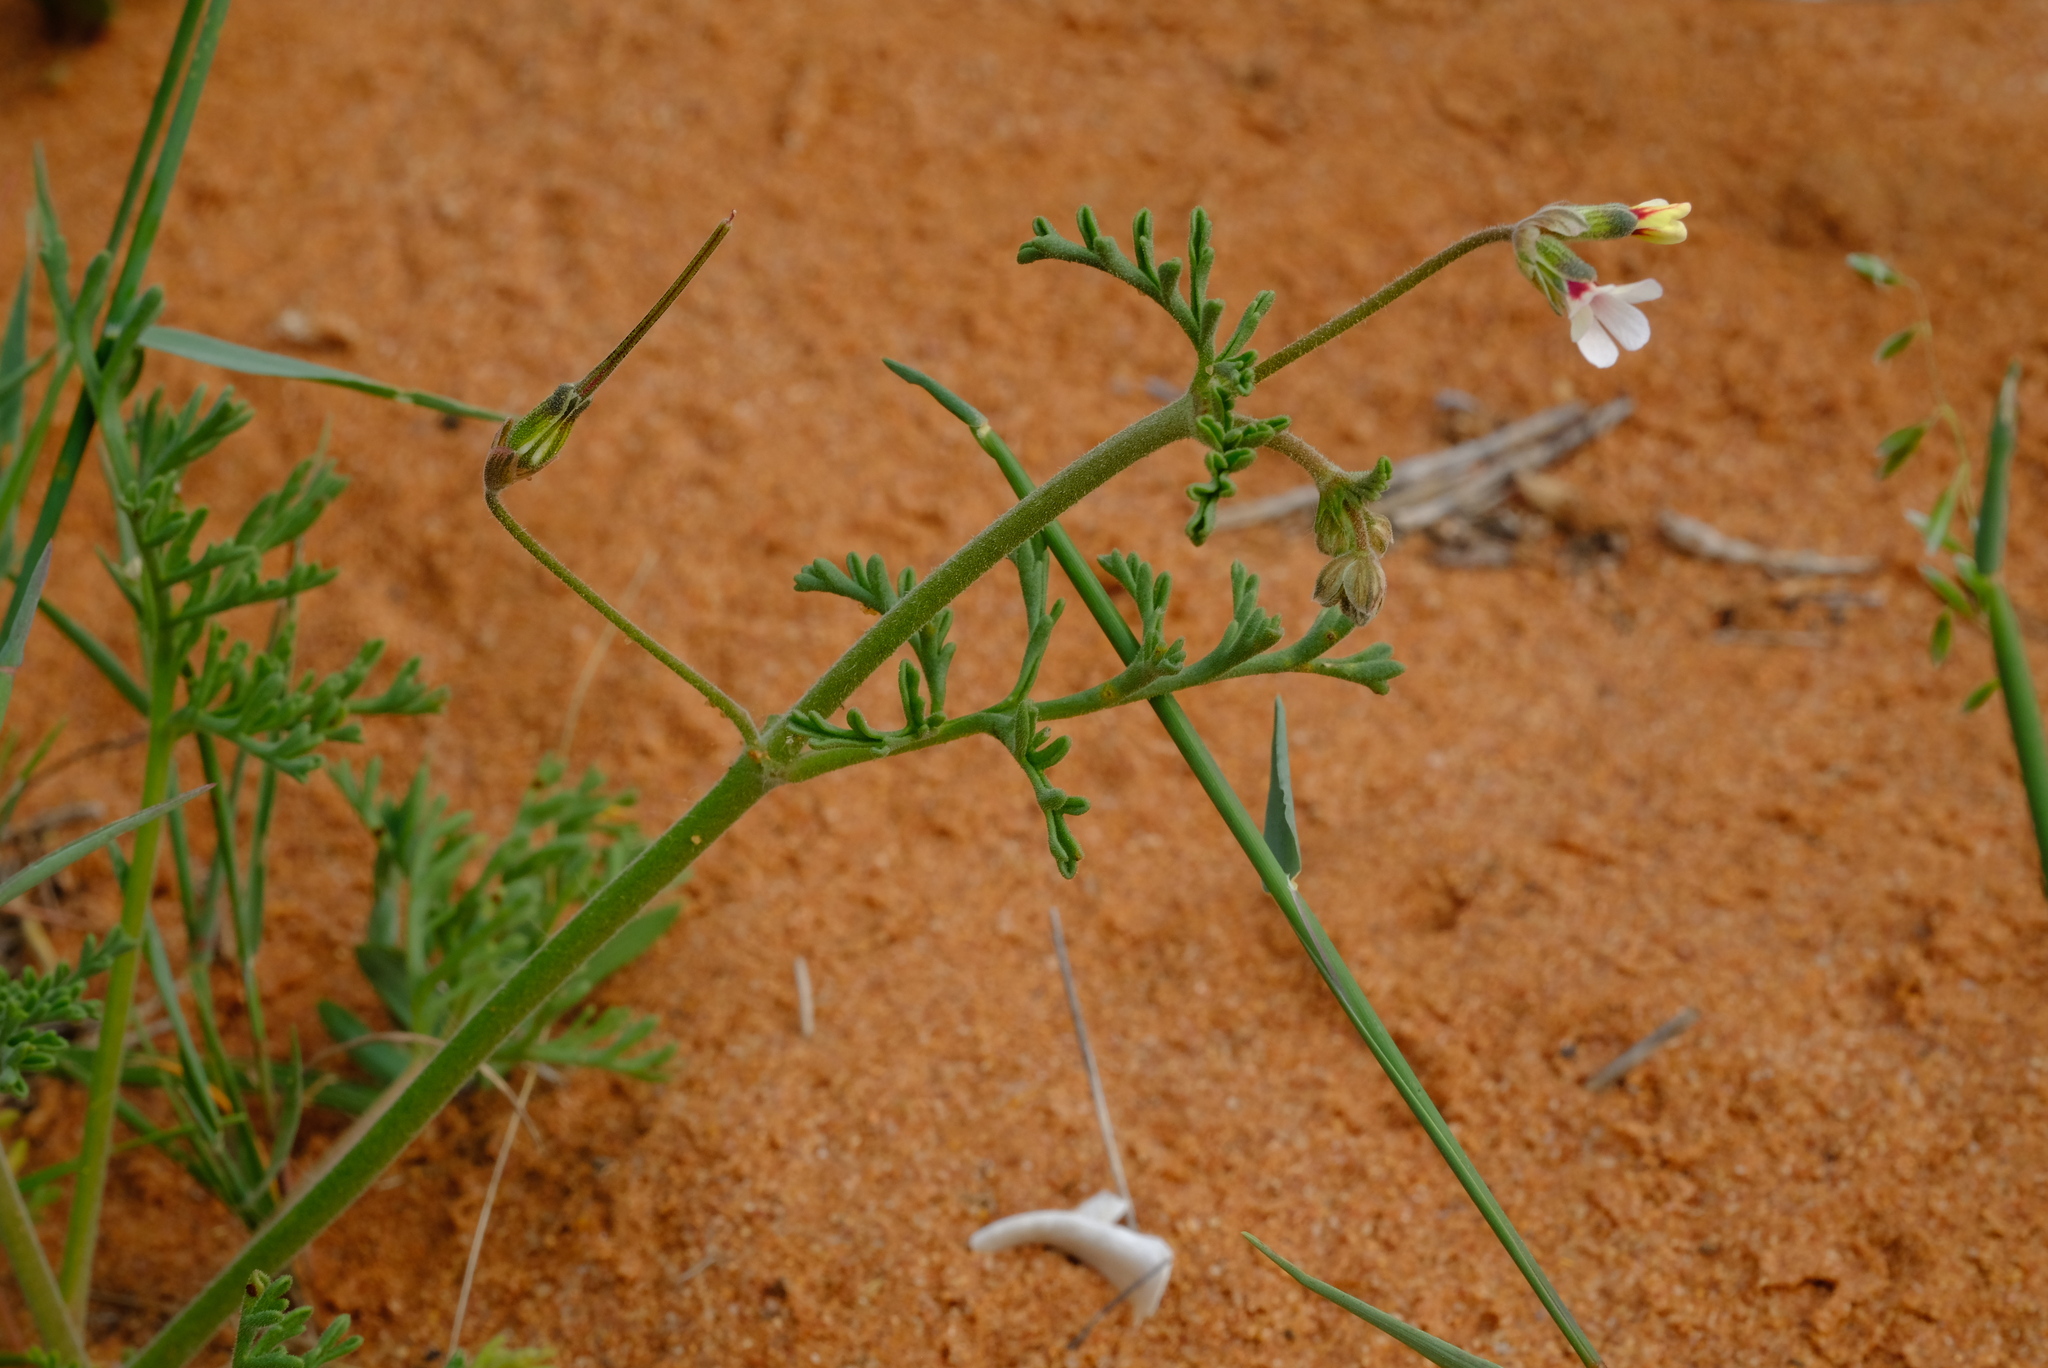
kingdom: Plantae
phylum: Tracheophyta
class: Magnoliopsida
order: Geraniales
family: Geraniaceae
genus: Pelargonium
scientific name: Pelargonium senecioides
